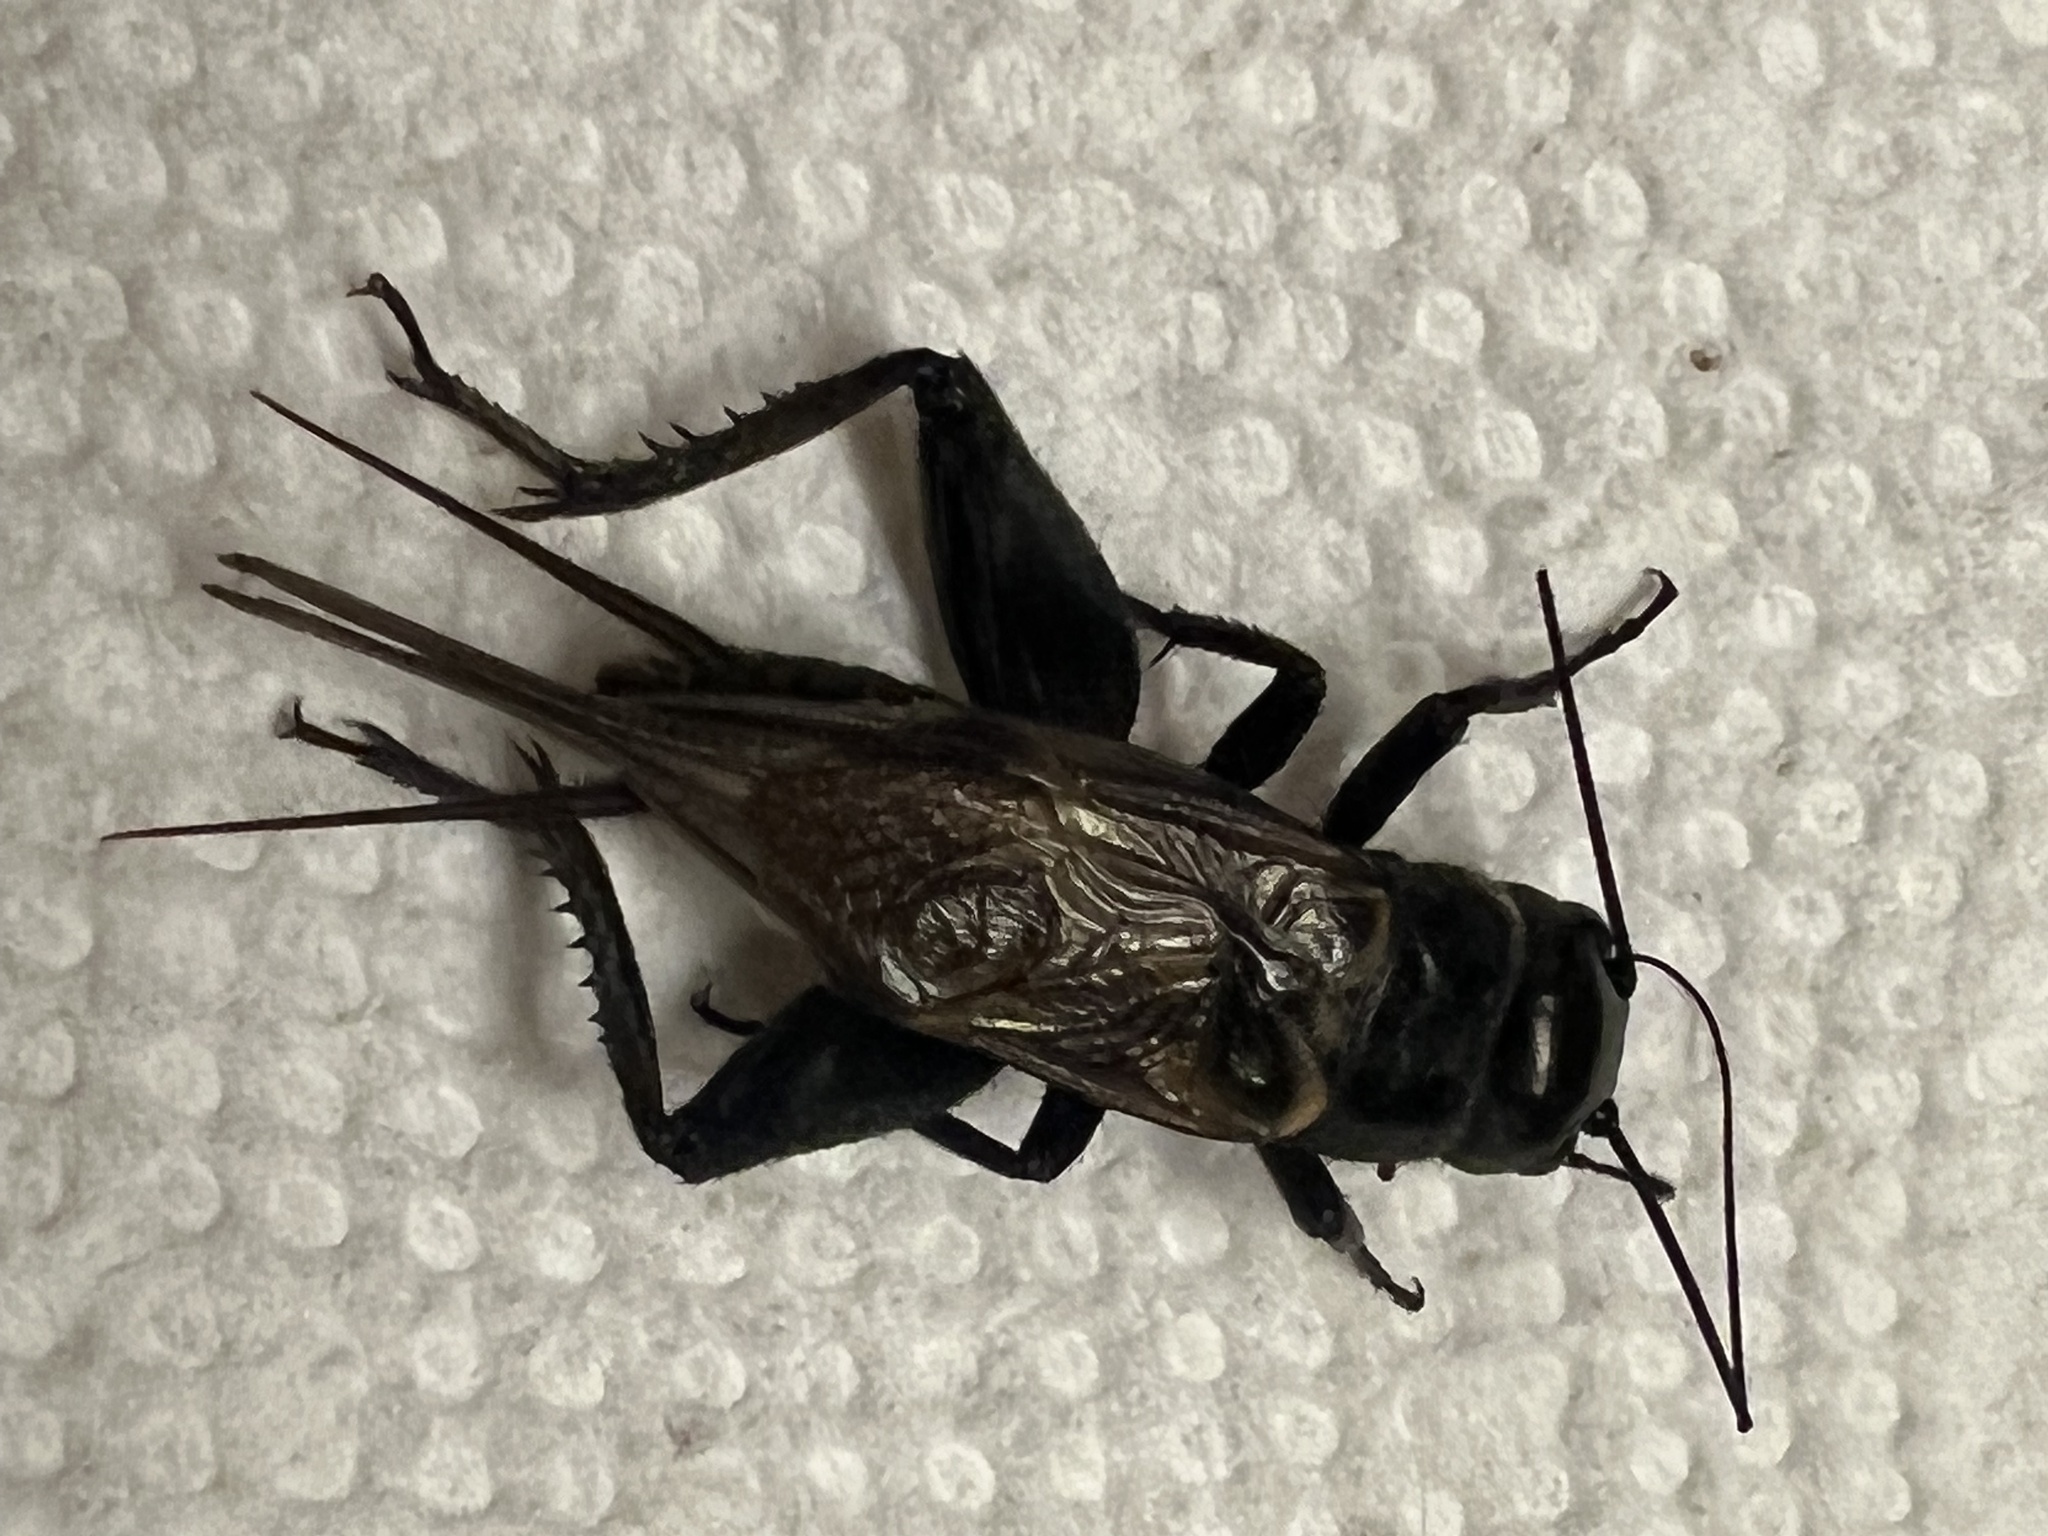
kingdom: Animalia
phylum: Arthropoda
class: Insecta
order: Orthoptera
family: Gryllidae
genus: Gryllus
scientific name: Gryllus
